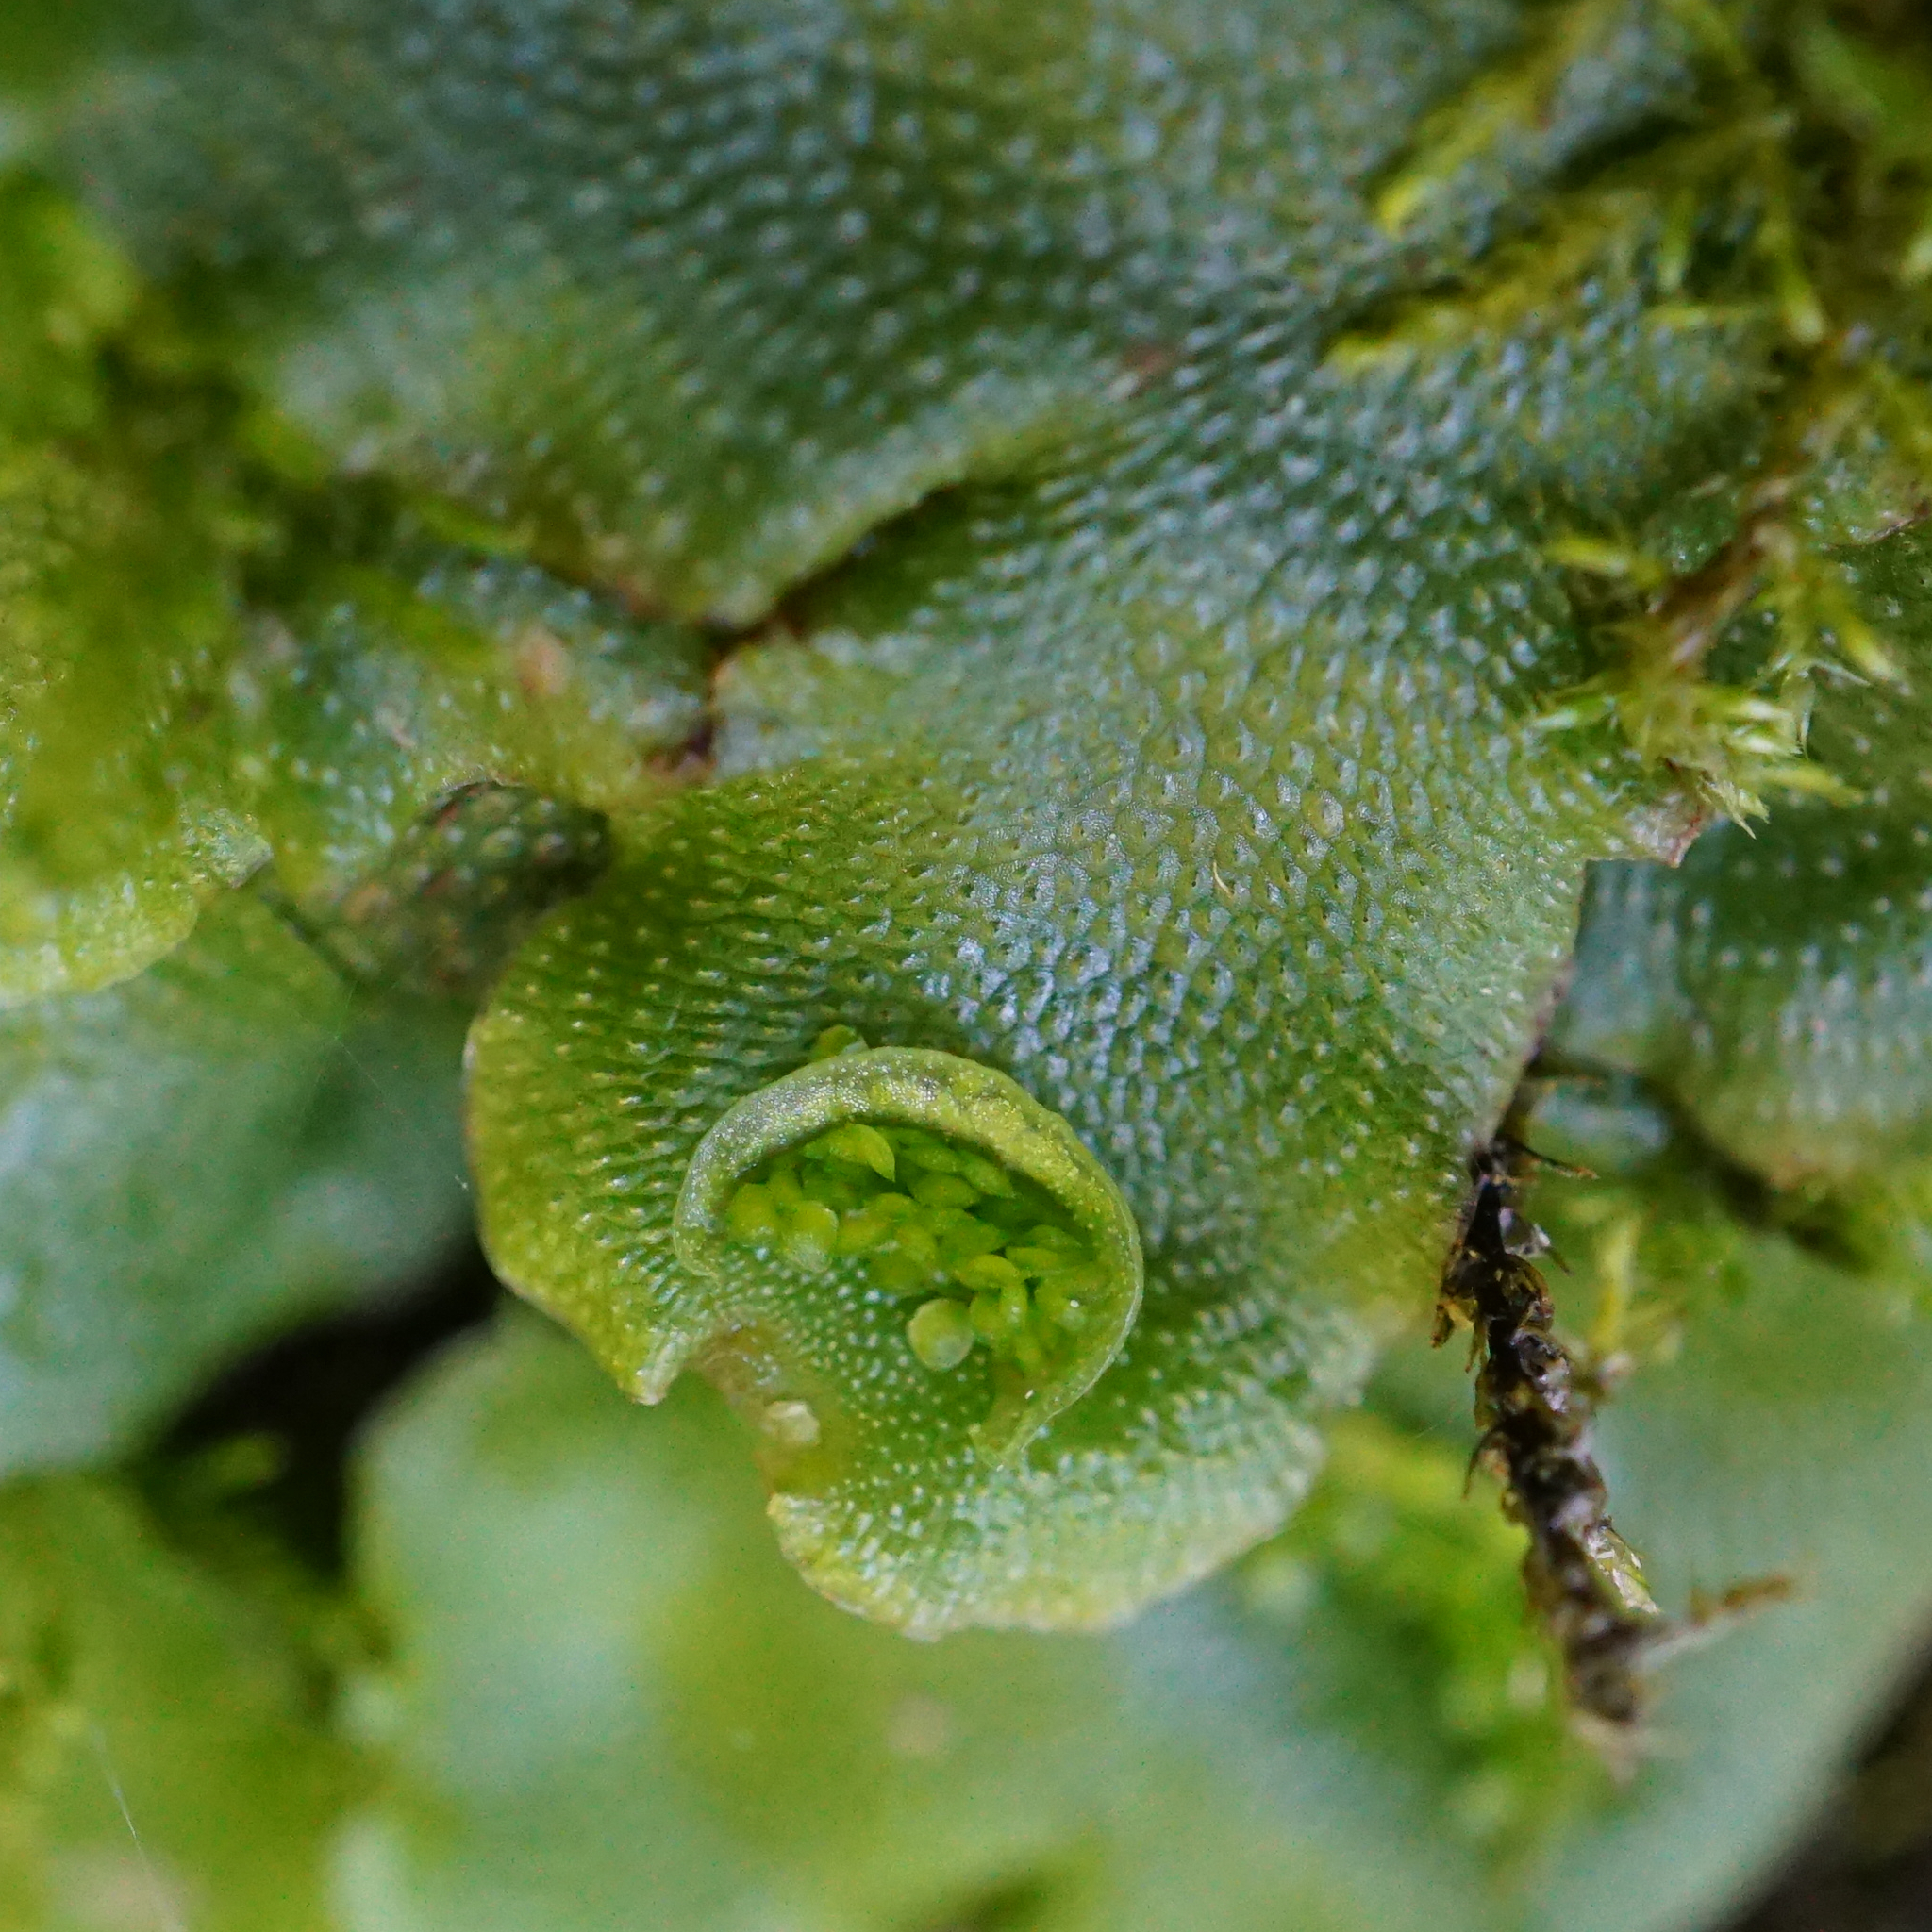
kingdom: Plantae
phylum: Marchantiophyta
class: Marchantiopsida
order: Lunulariales
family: Lunulariaceae
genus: Lunularia
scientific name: Lunularia cruciata
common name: Crescent-cup liverwort
